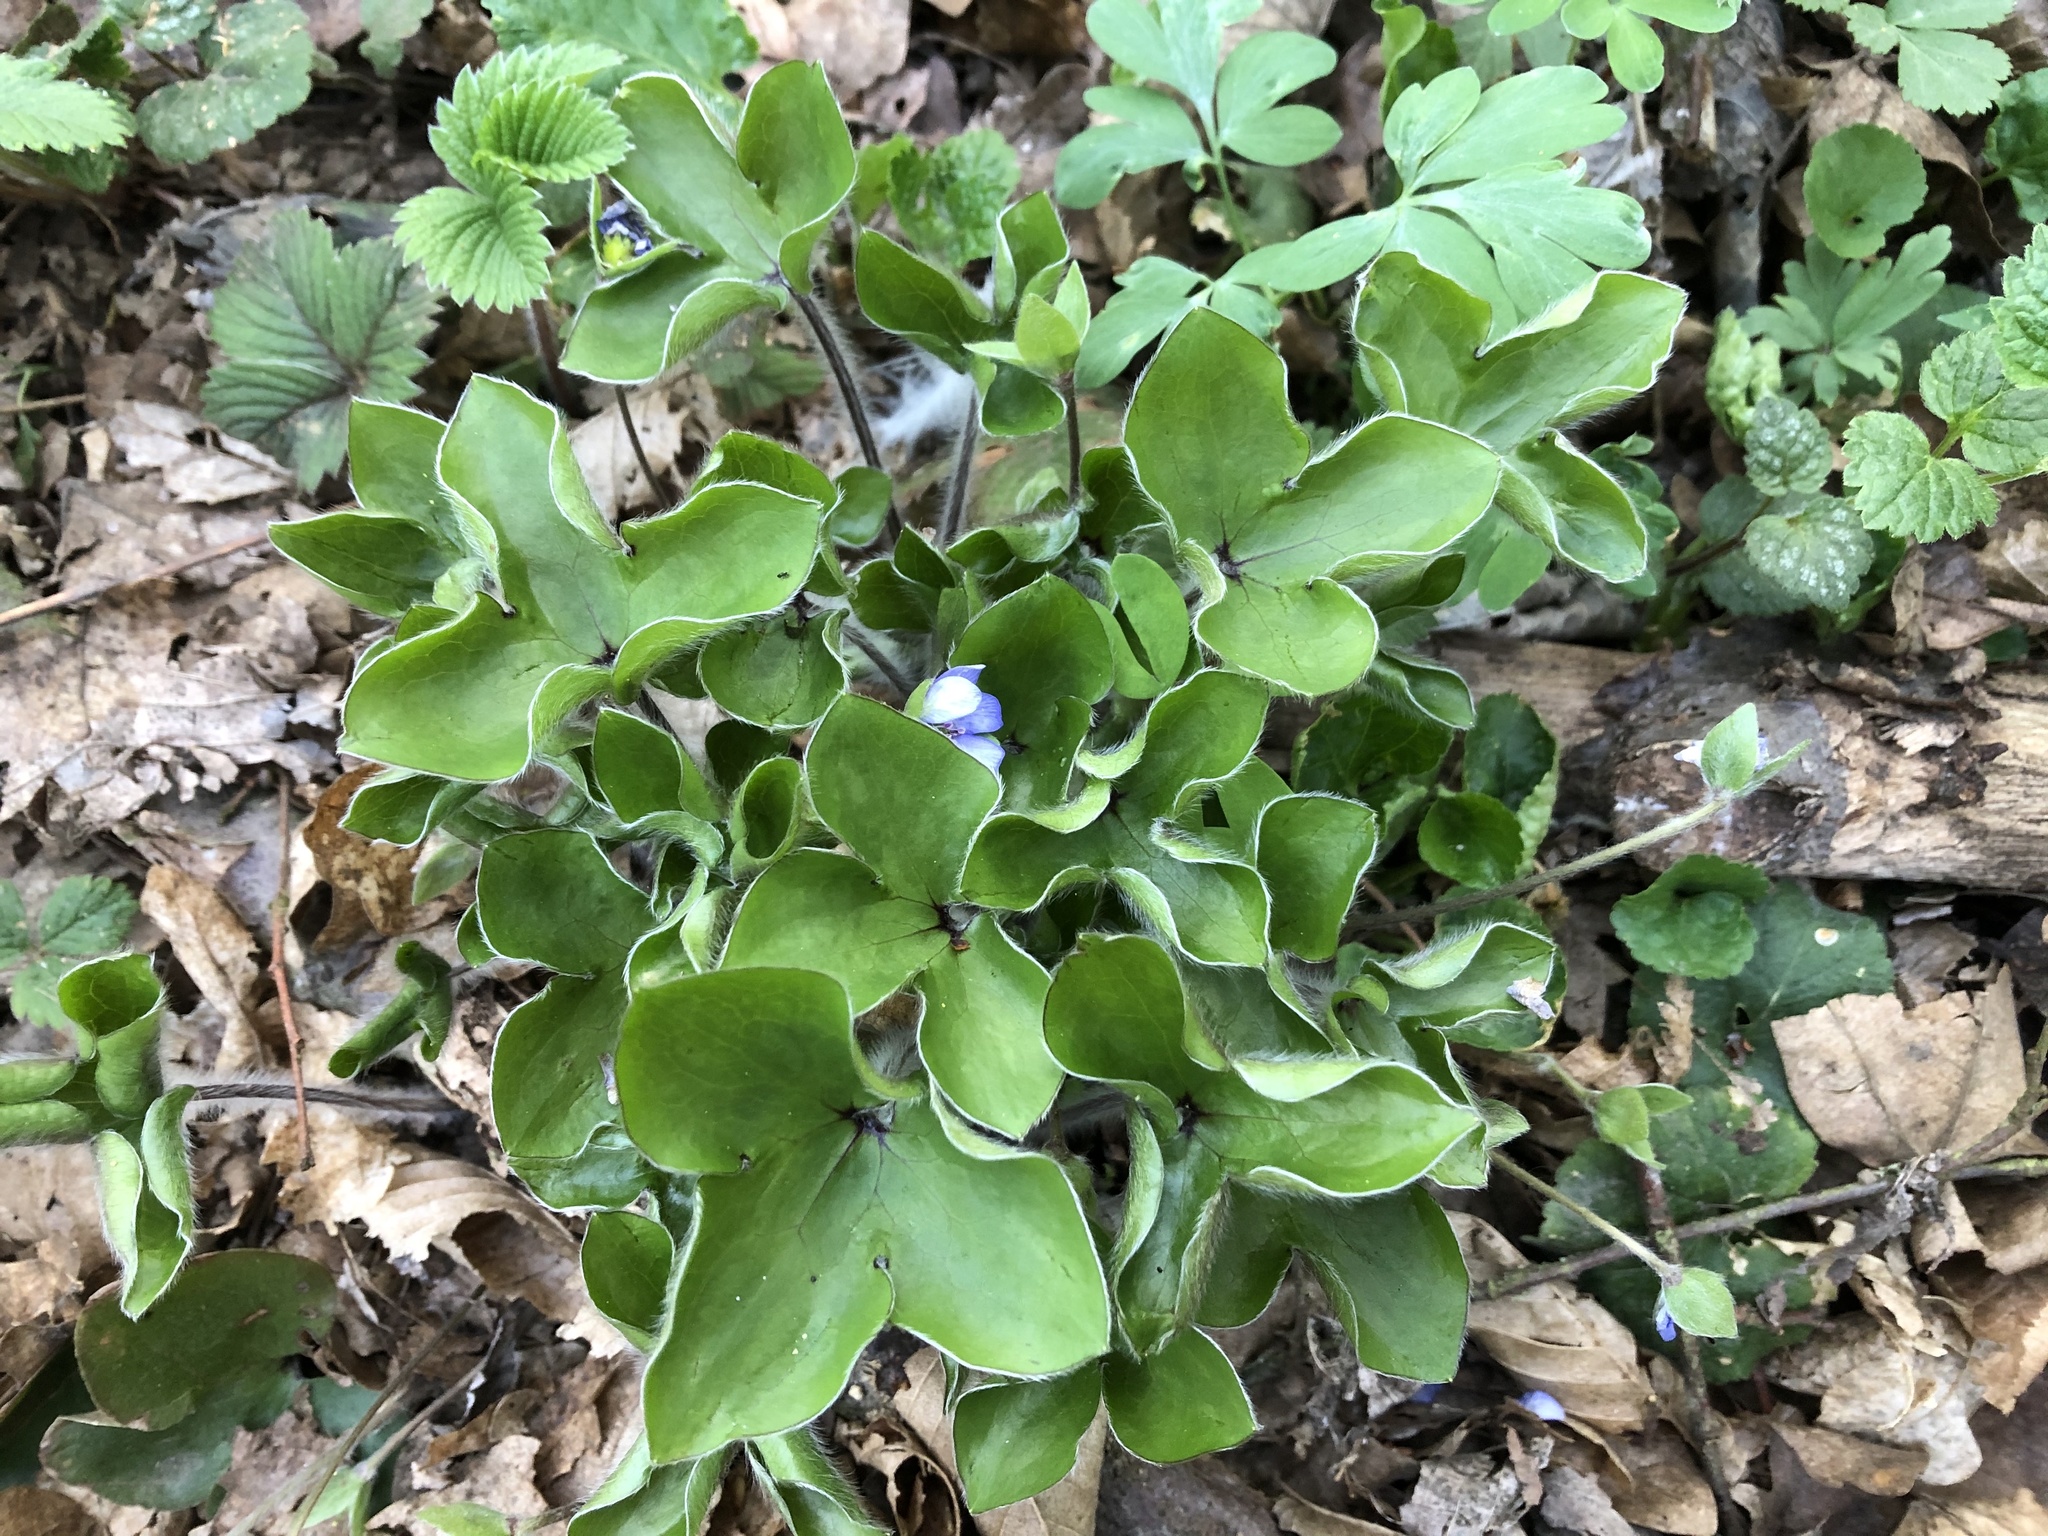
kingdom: Plantae
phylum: Tracheophyta
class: Magnoliopsida
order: Ranunculales
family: Ranunculaceae
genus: Hepatica
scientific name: Hepatica nobilis
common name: Liverleaf
